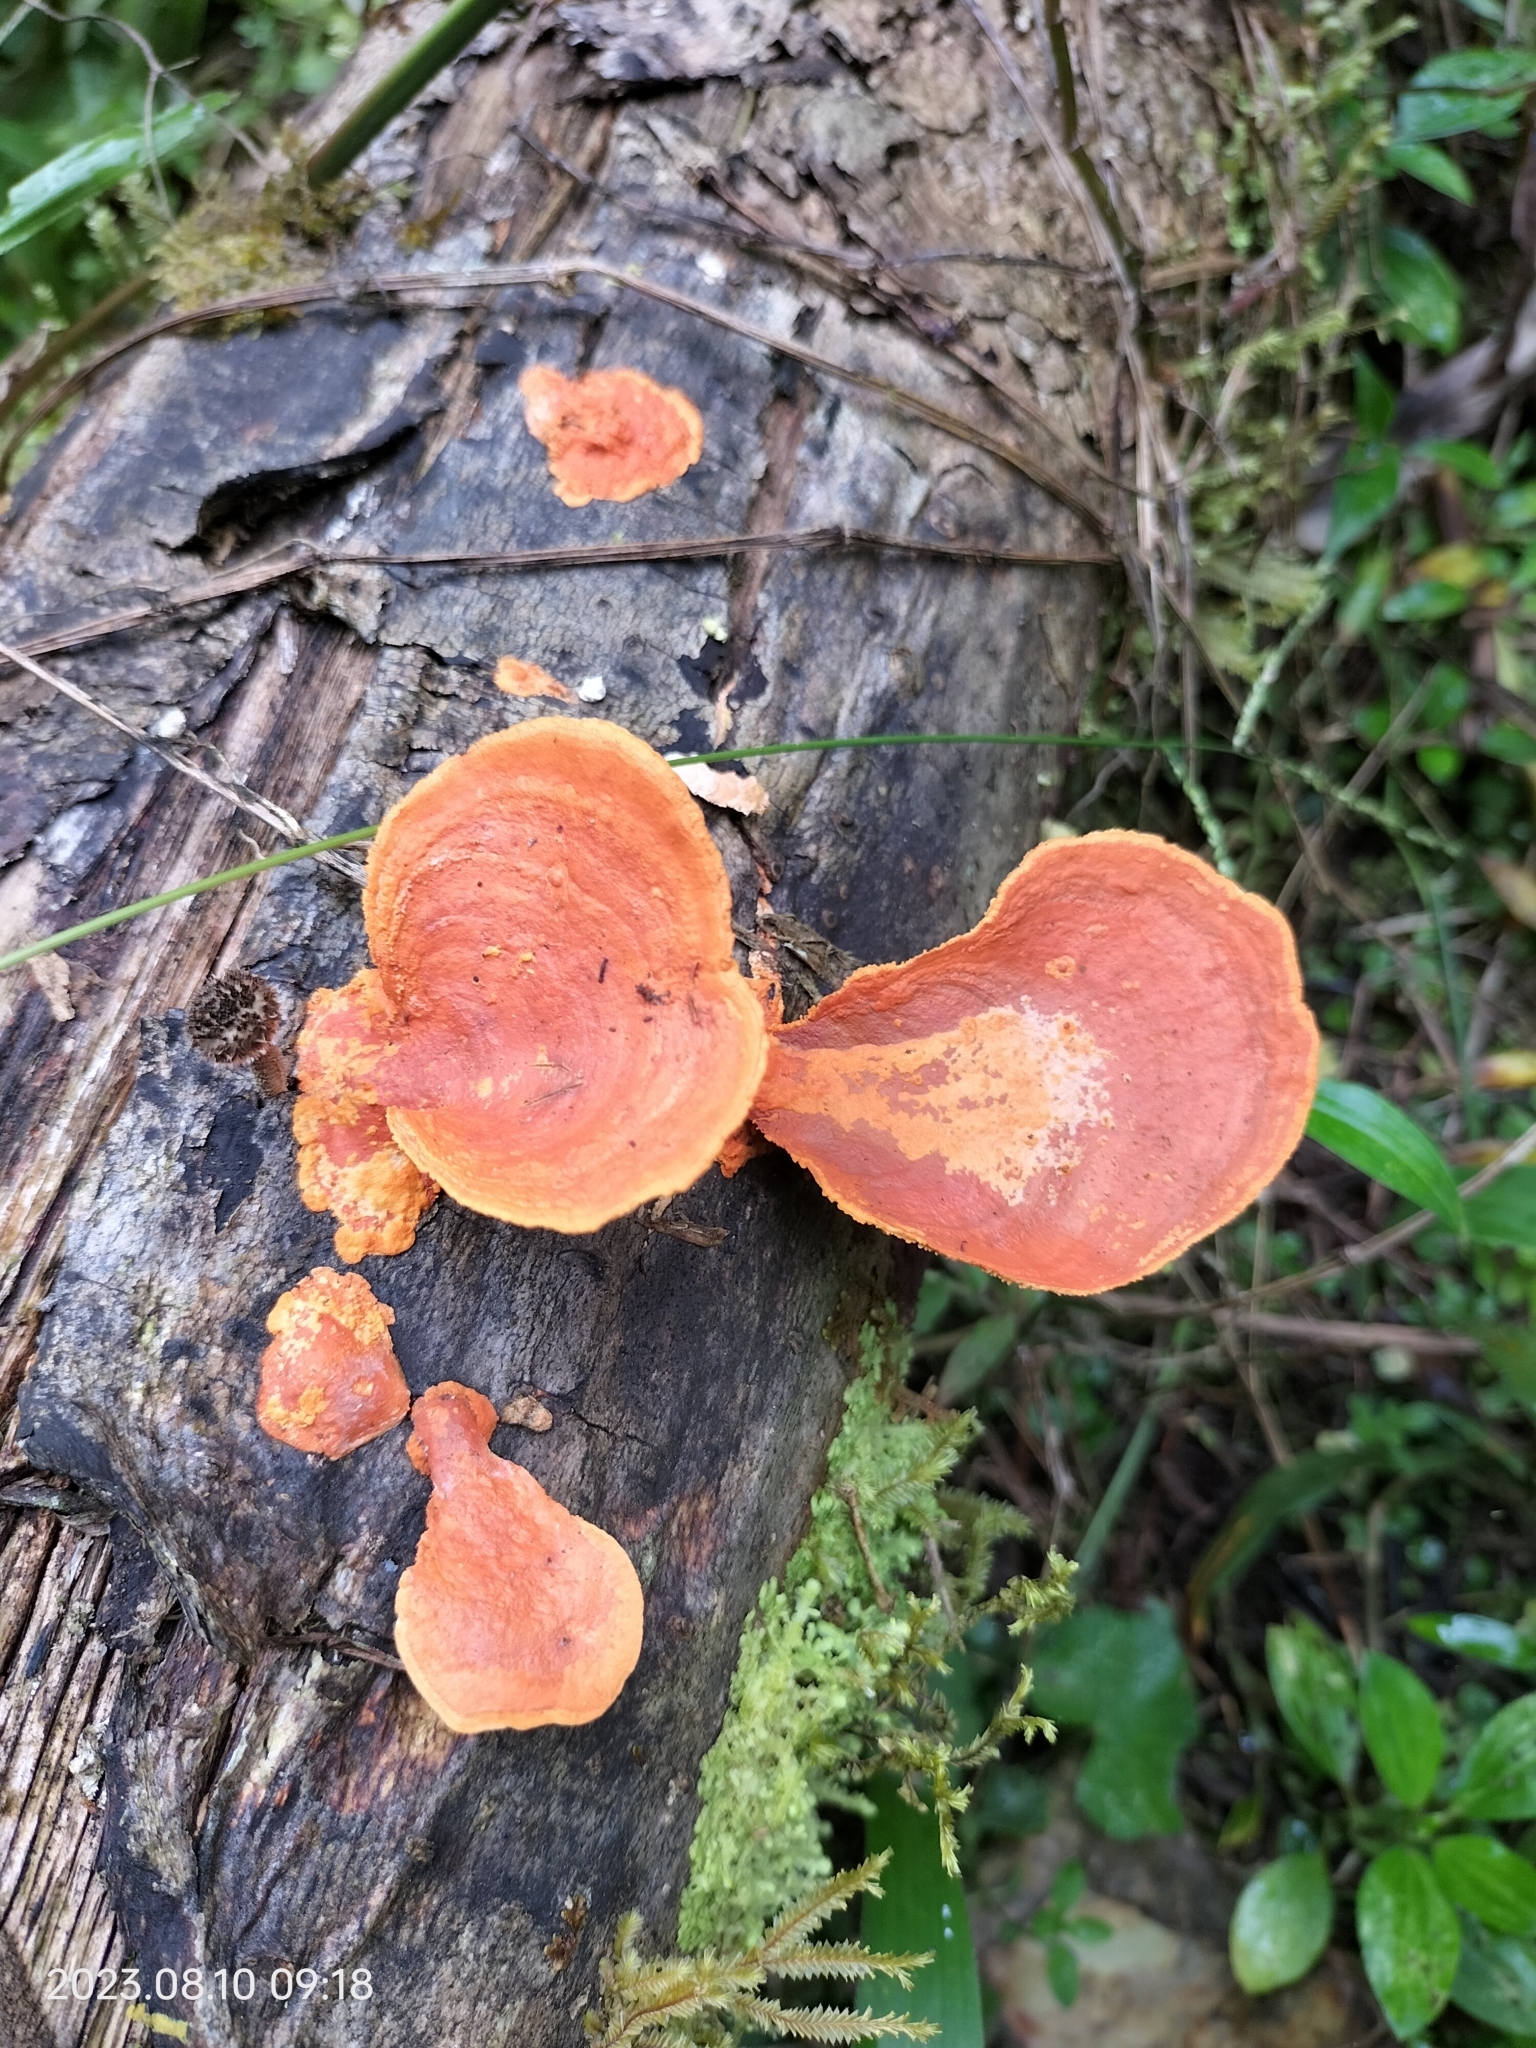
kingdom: Fungi
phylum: Basidiomycota
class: Agaricomycetes
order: Polyporales
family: Polyporaceae
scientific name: Polyporaceae
